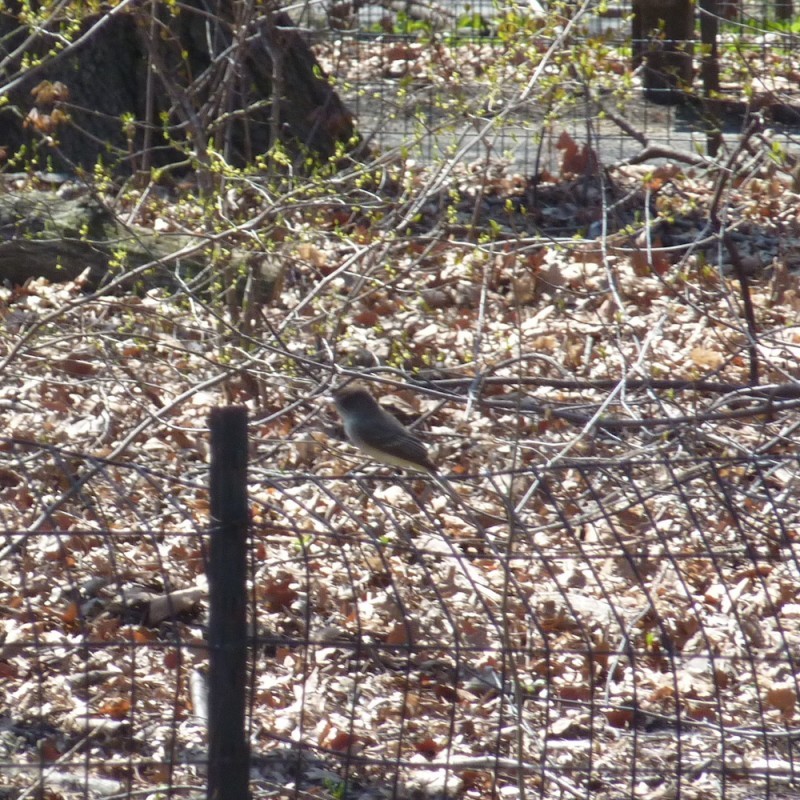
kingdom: Animalia
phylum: Chordata
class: Aves
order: Passeriformes
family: Tyrannidae
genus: Sayornis
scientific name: Sayornis phoebe
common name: Eastern phoebe
